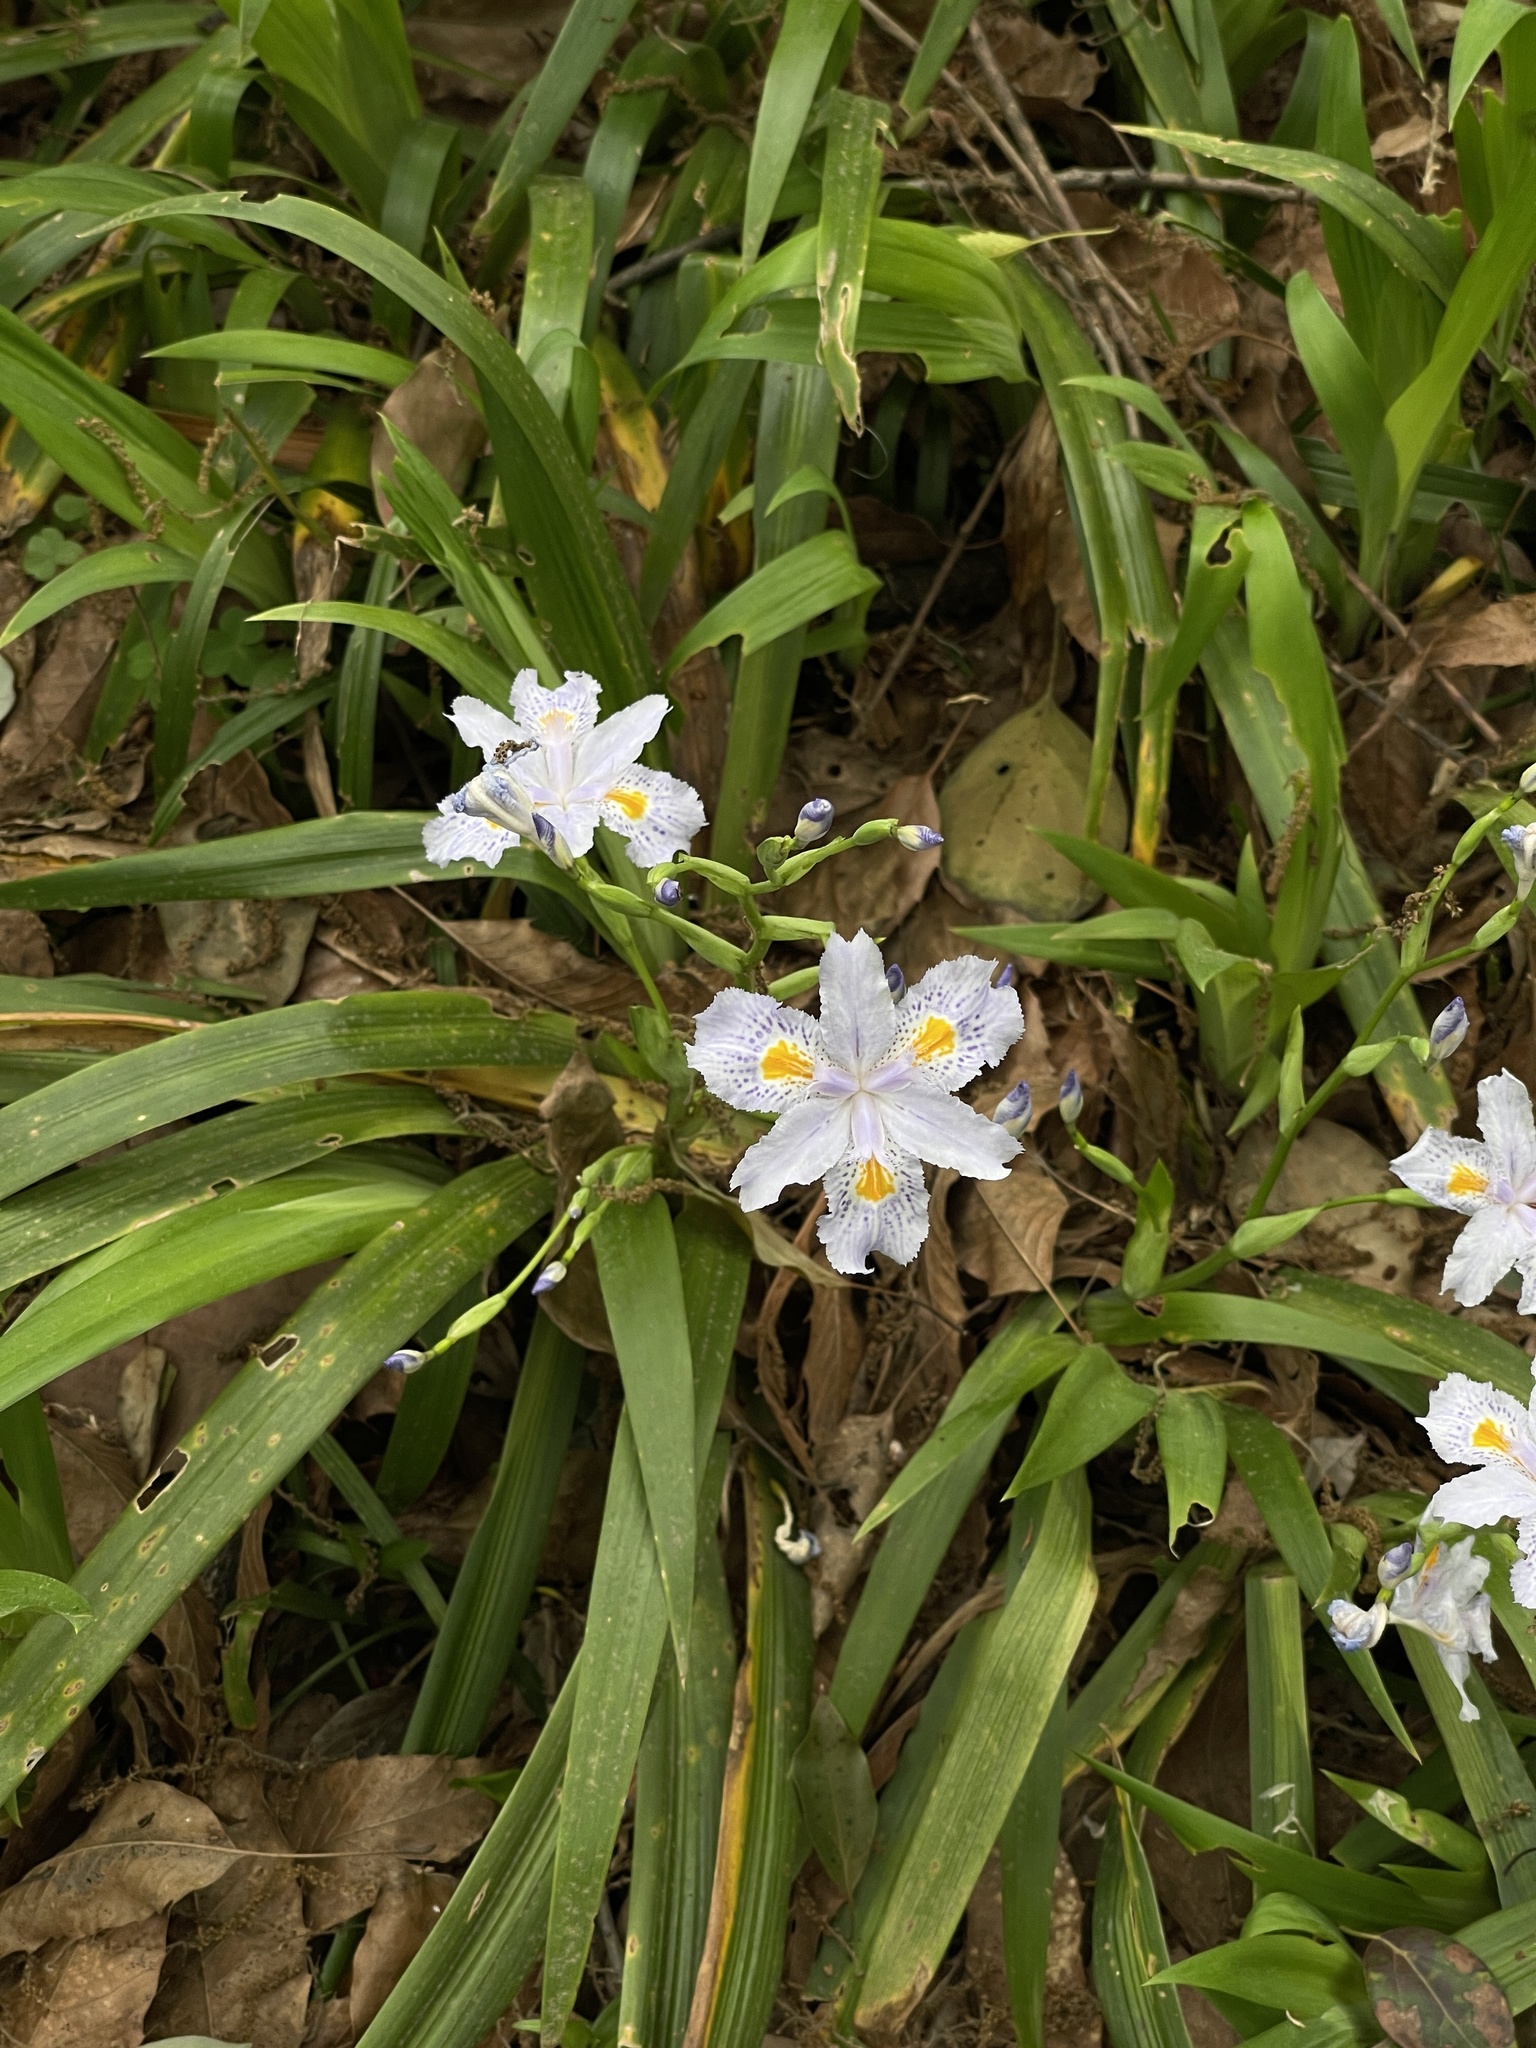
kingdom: Plantae
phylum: Tracheophyta
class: Liliopsida
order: Asparagales
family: Iridaceae
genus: Iris
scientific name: Iris japonica
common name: Butterfly-flower
